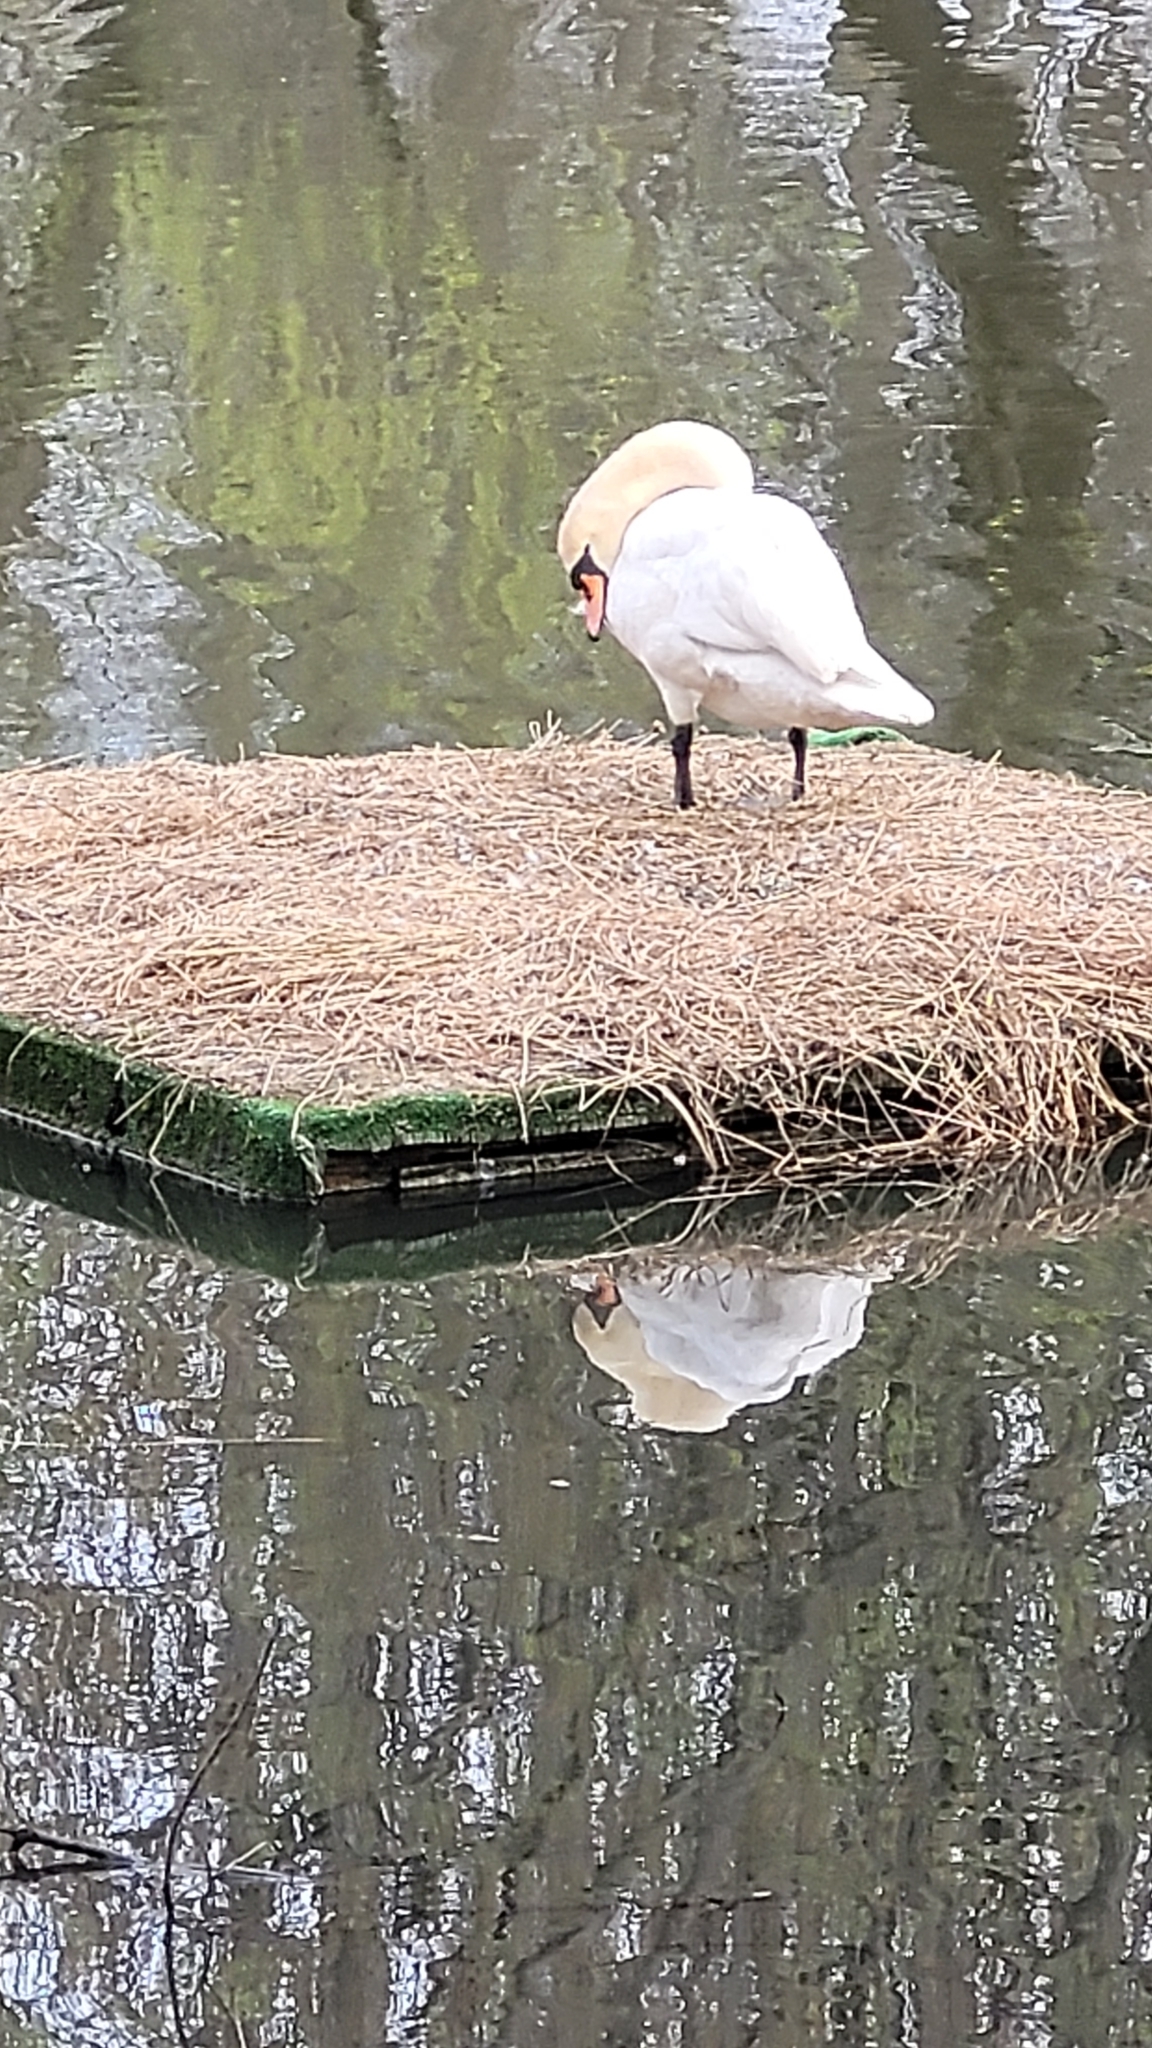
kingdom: Animalia
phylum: Chordata
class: Aves
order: Anseriformes
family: Anatidae
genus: Cygnus
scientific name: Cygnus olor
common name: Mute swan
